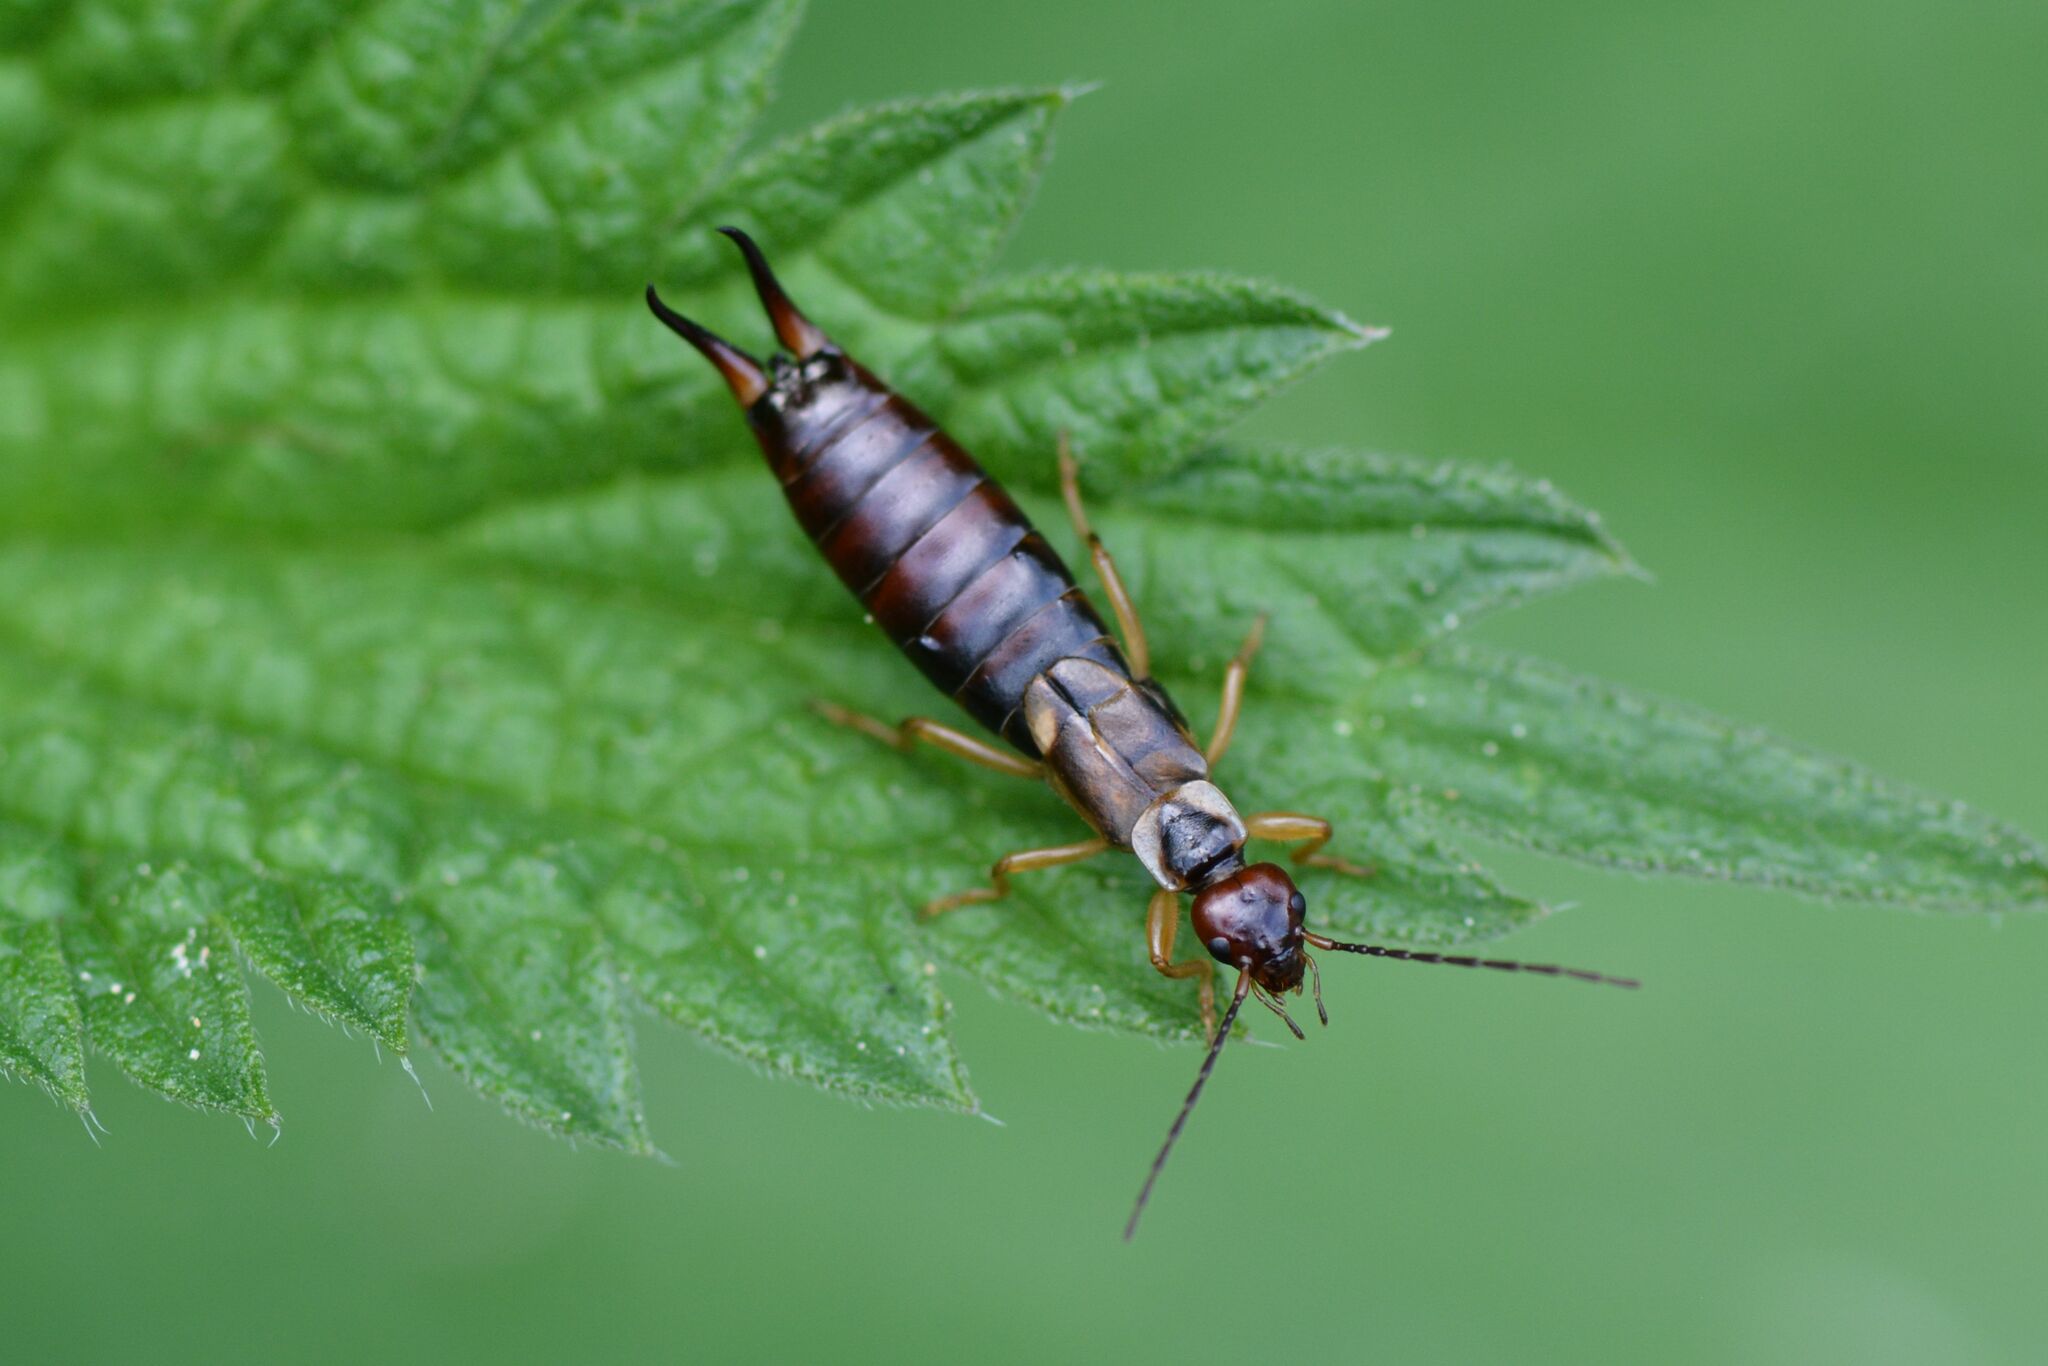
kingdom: Animalia
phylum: Arthropoda
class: Insecta
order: Dermaptera
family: Forficulidae
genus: Forficula
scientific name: Forficula
